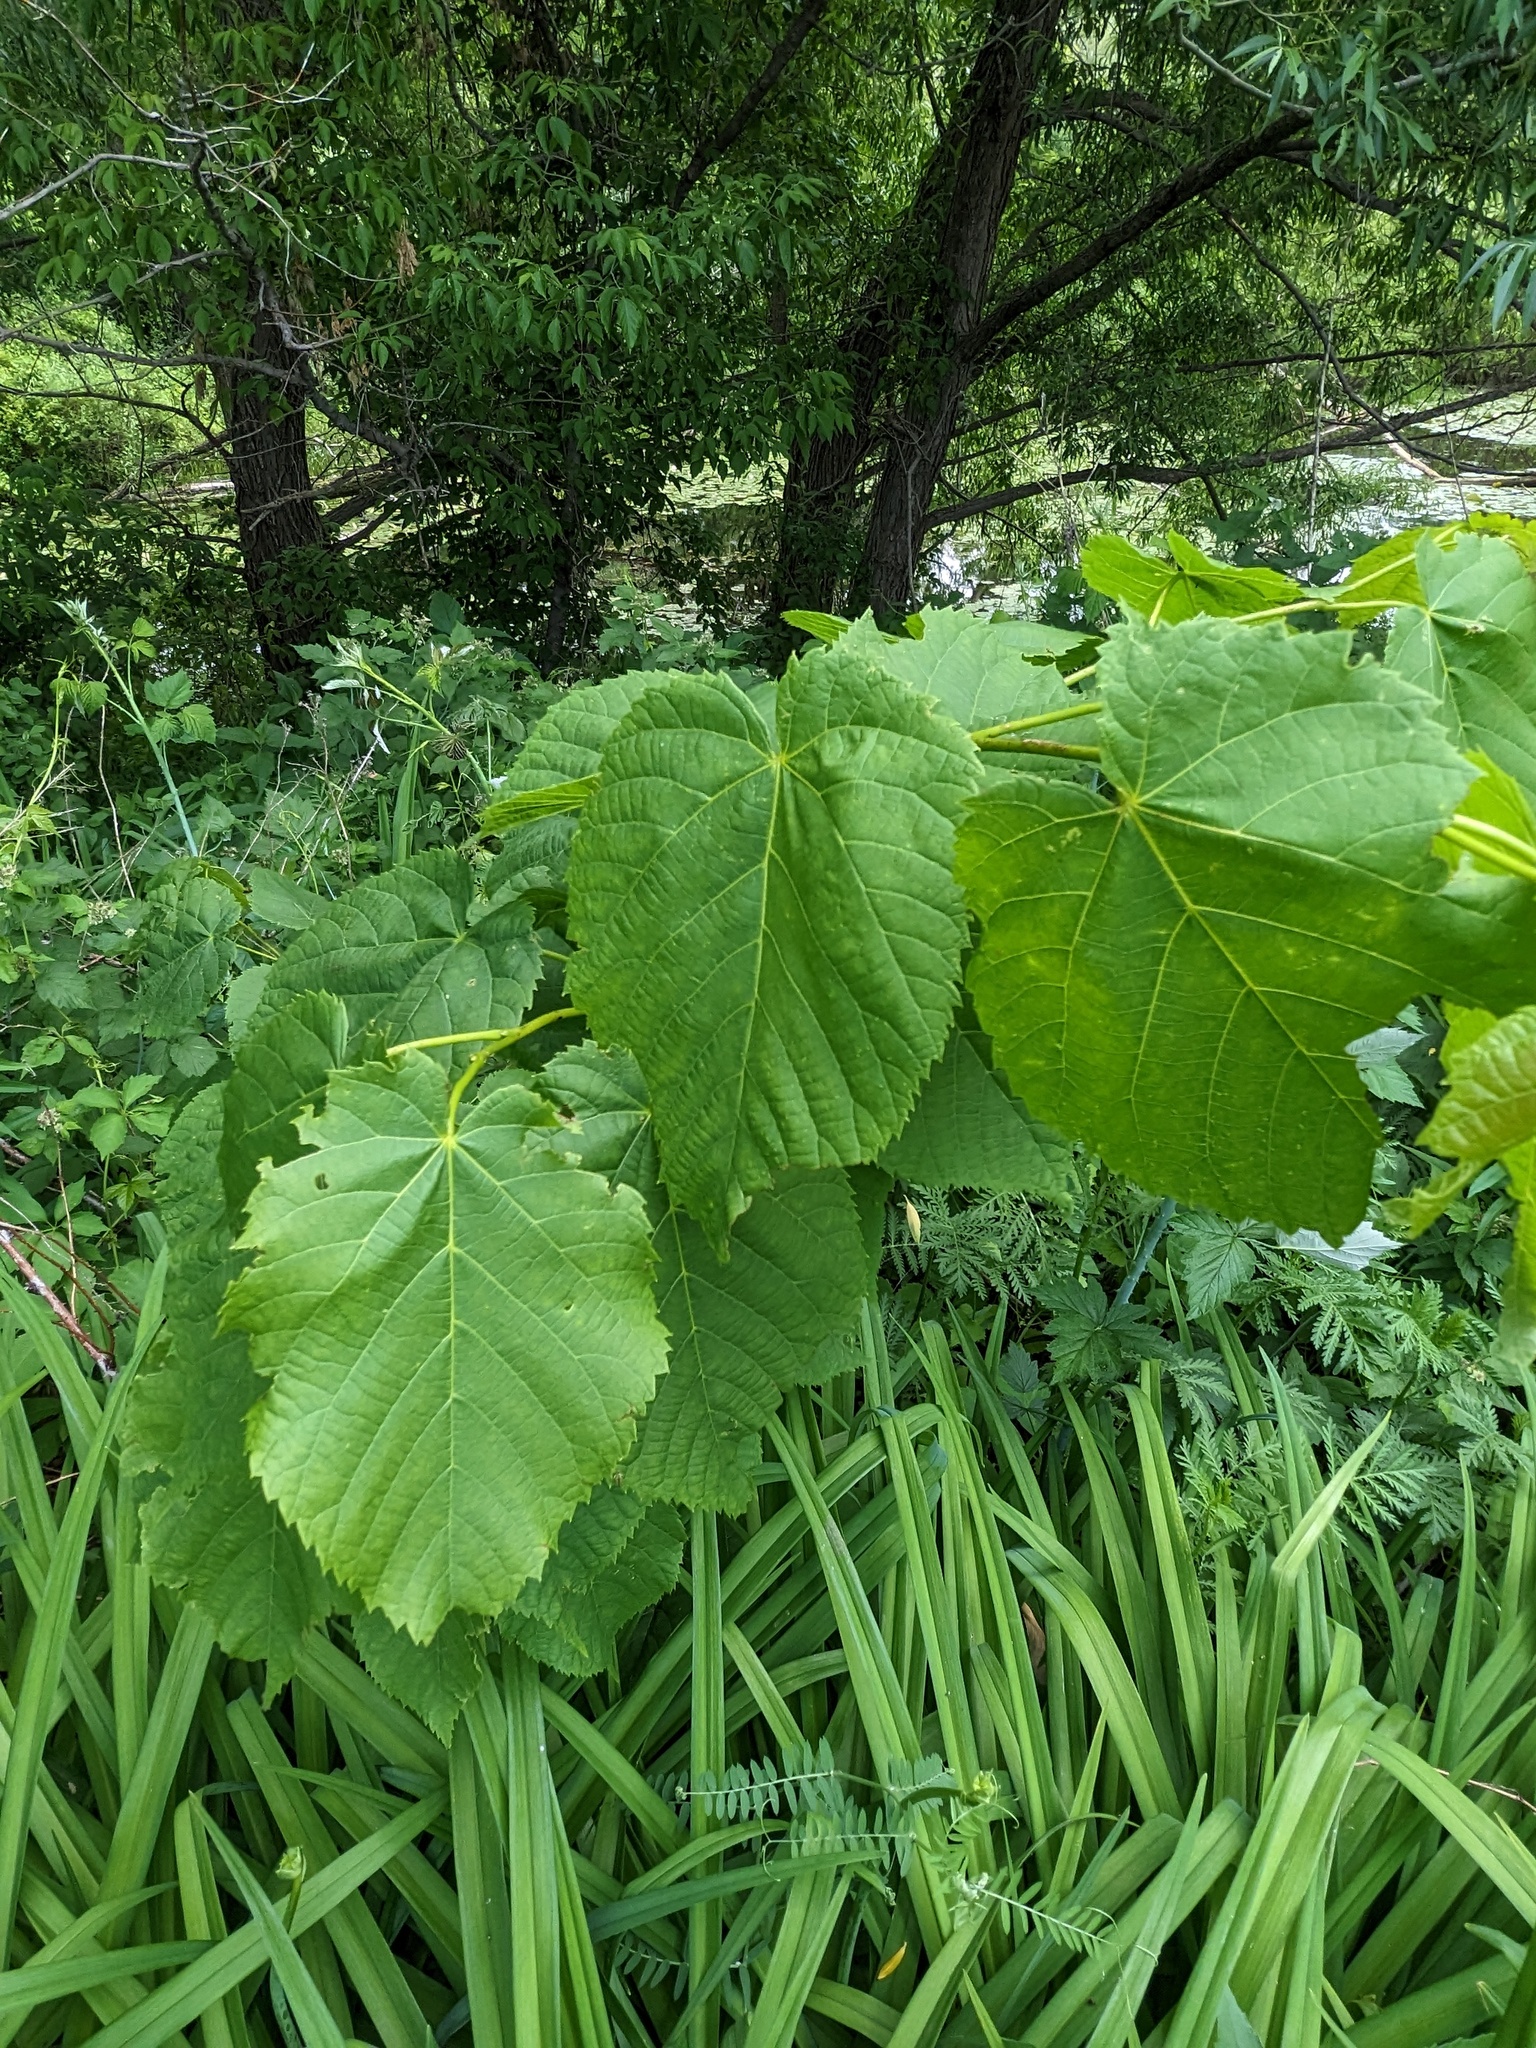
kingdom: Plantae
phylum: Tracheophyta
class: Magnoliopsida
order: Malvales
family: Malvaceae
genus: Tilia
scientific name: Tilia americana
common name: Basswood
